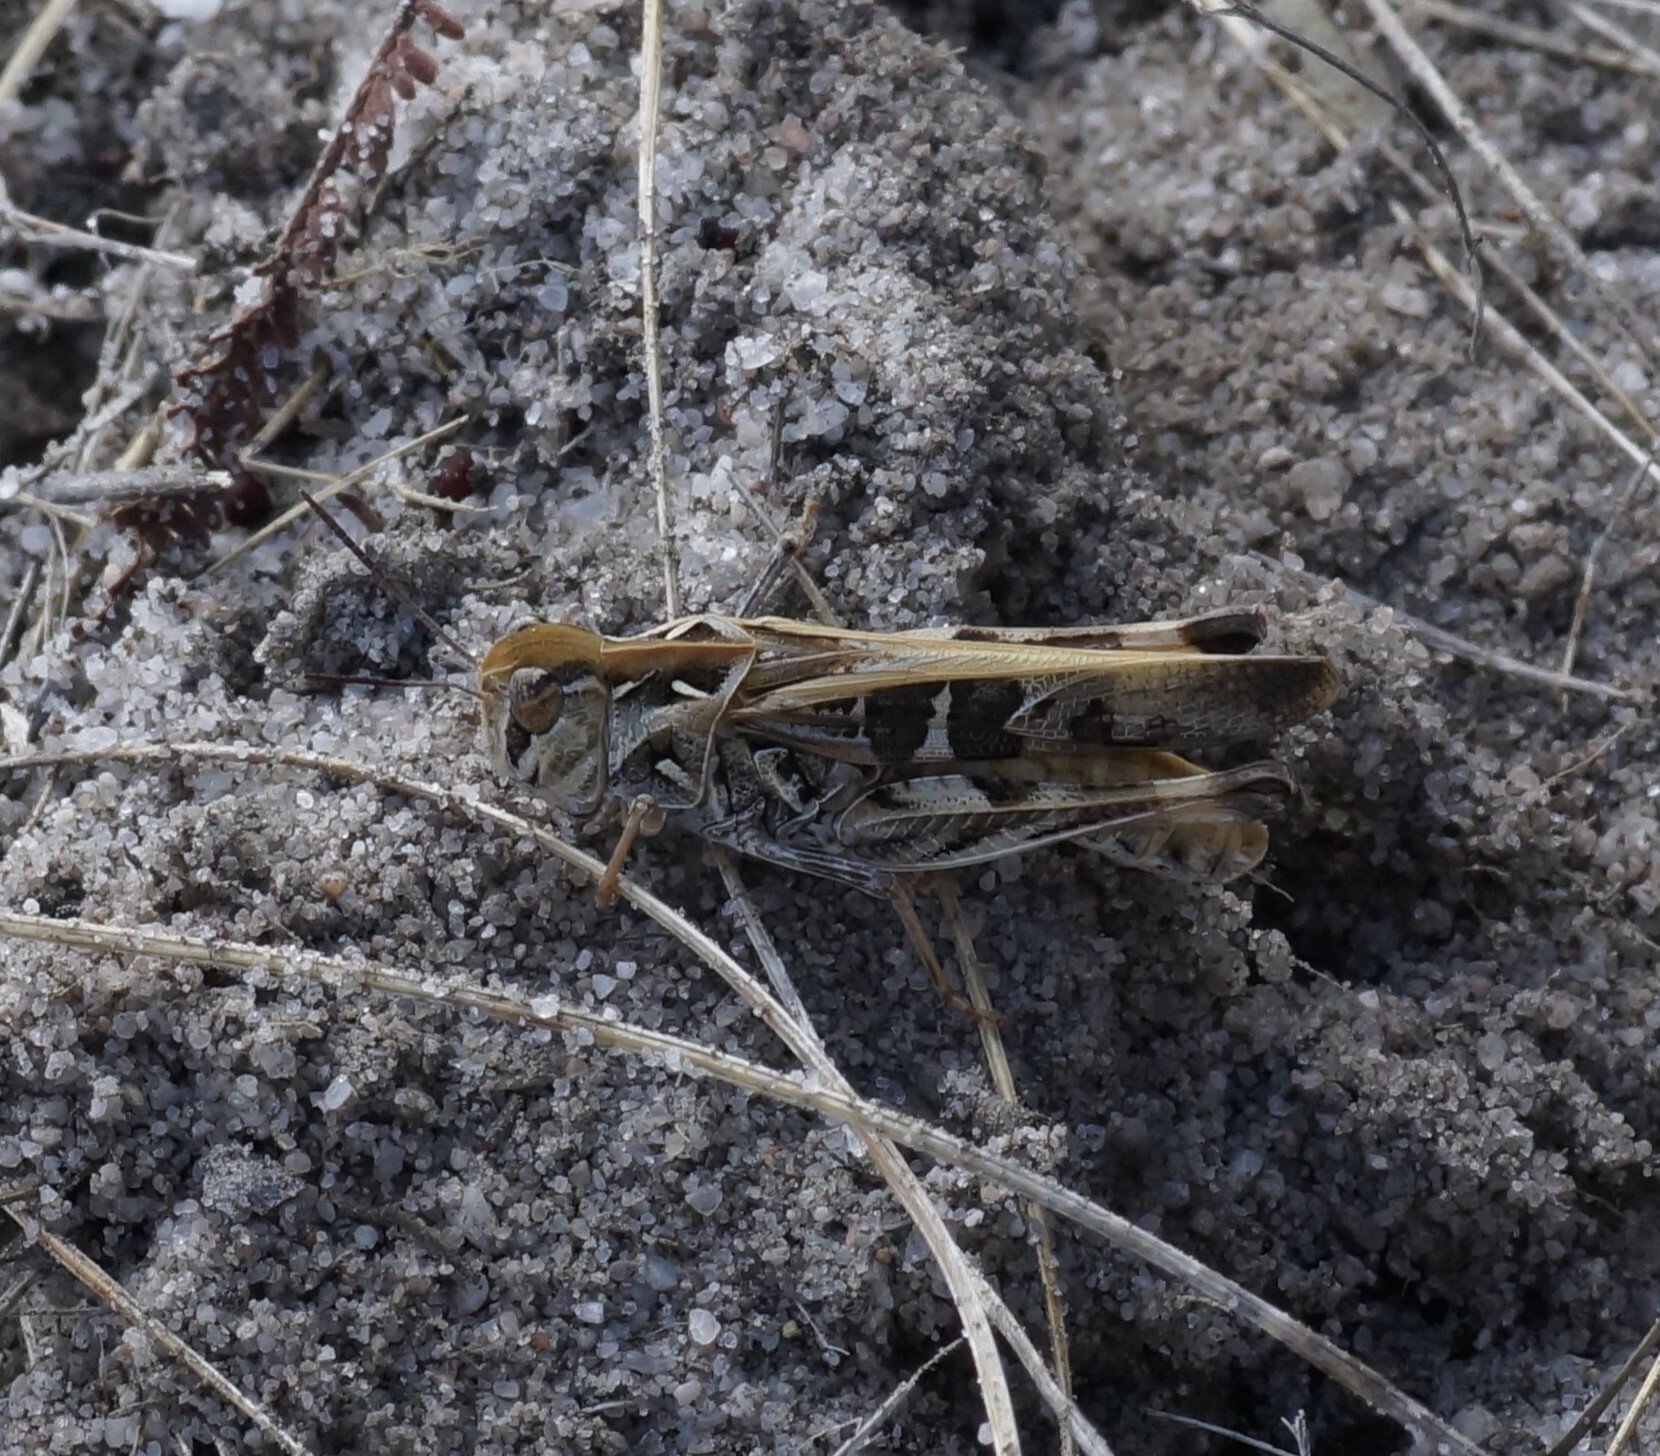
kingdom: Animalia
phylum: Arthropoda
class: Insecta
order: Orthoptera
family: Acrididae
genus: Oedaleus
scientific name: Oedaleus australis
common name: Eastern oedaleus
